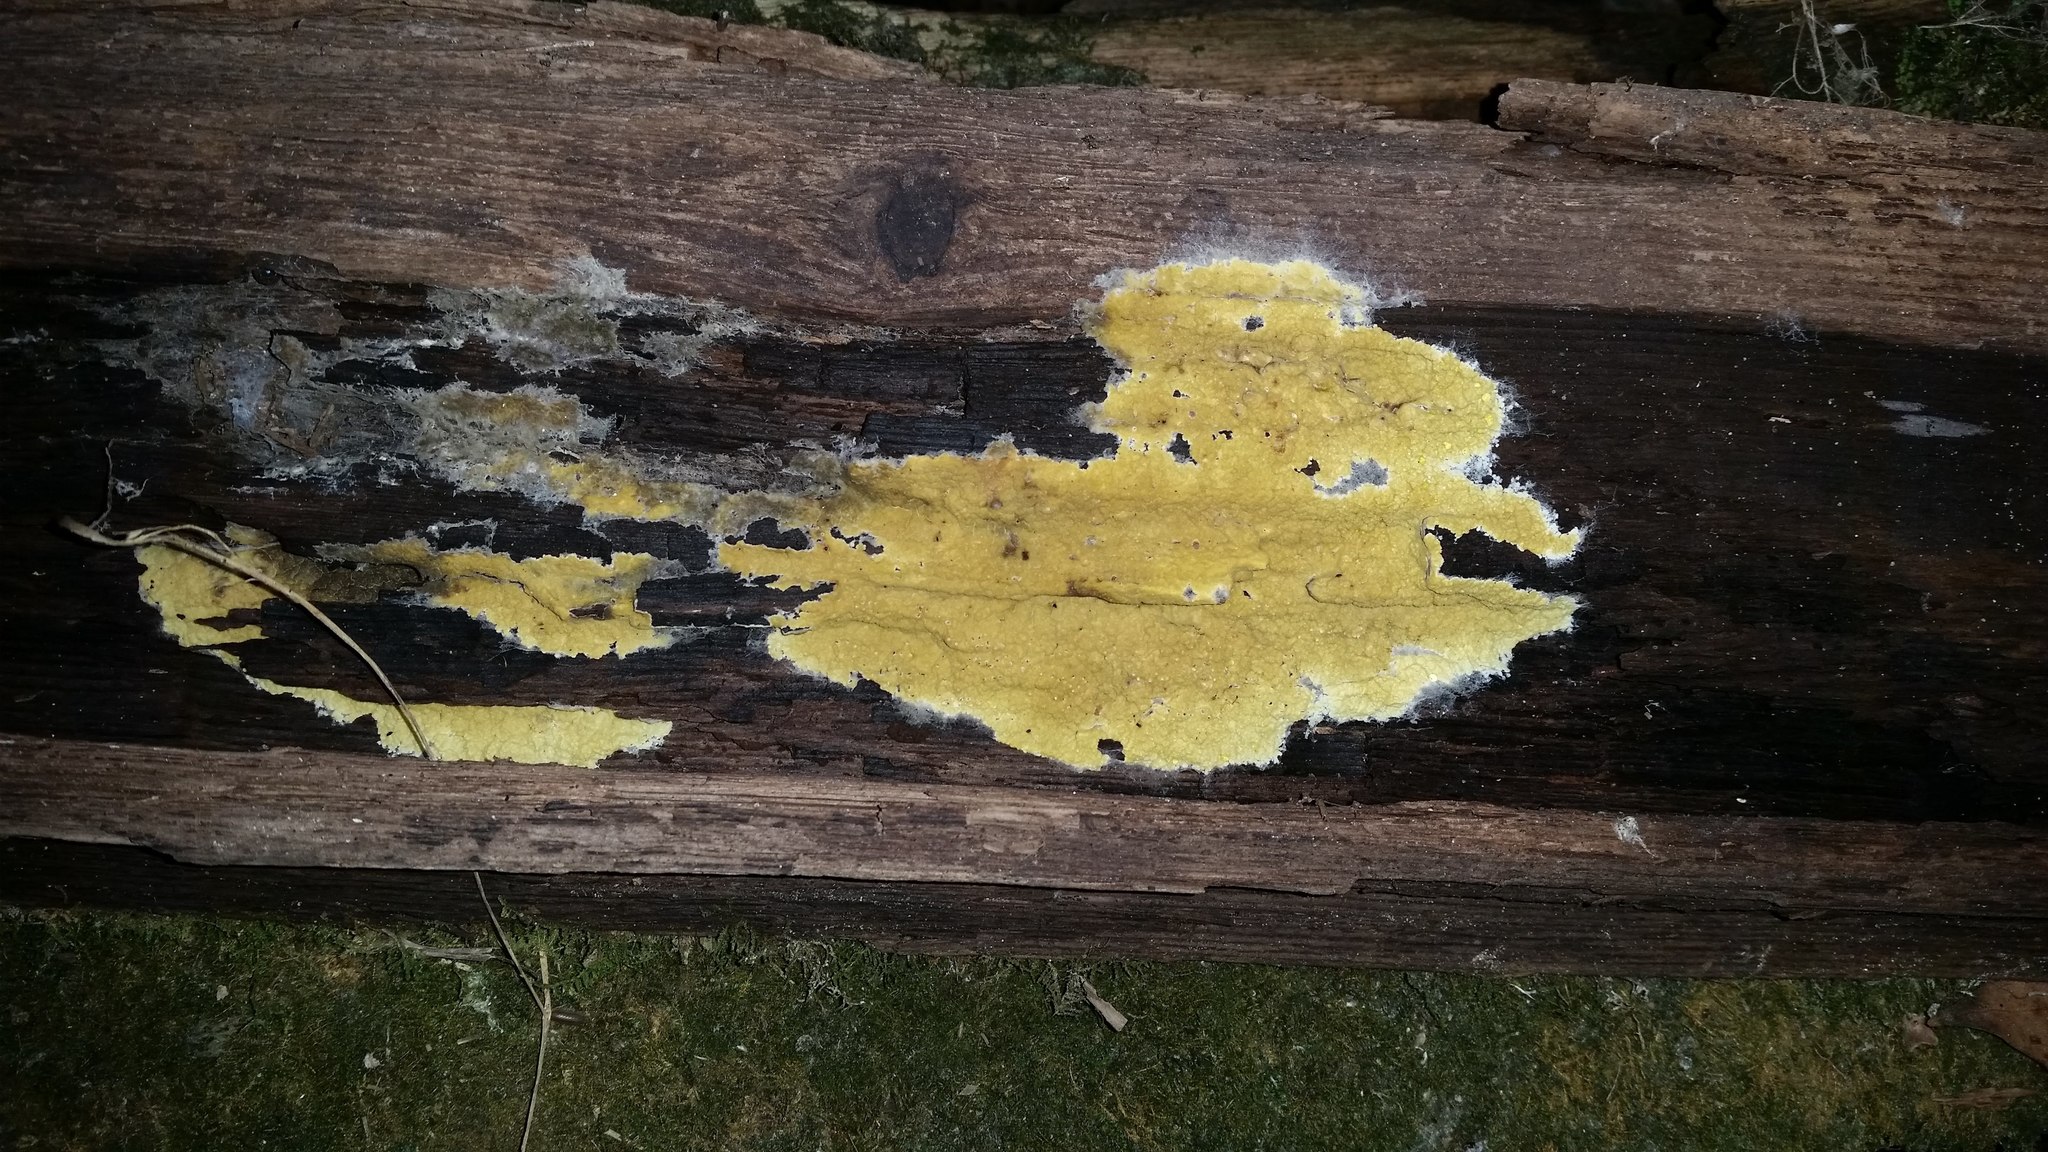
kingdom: Fungi
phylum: Basidiomycota
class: Agaricomycetes
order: Boletales
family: Coniophoraceae
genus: Penttilamyces
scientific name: Penttilamyces olivascens
